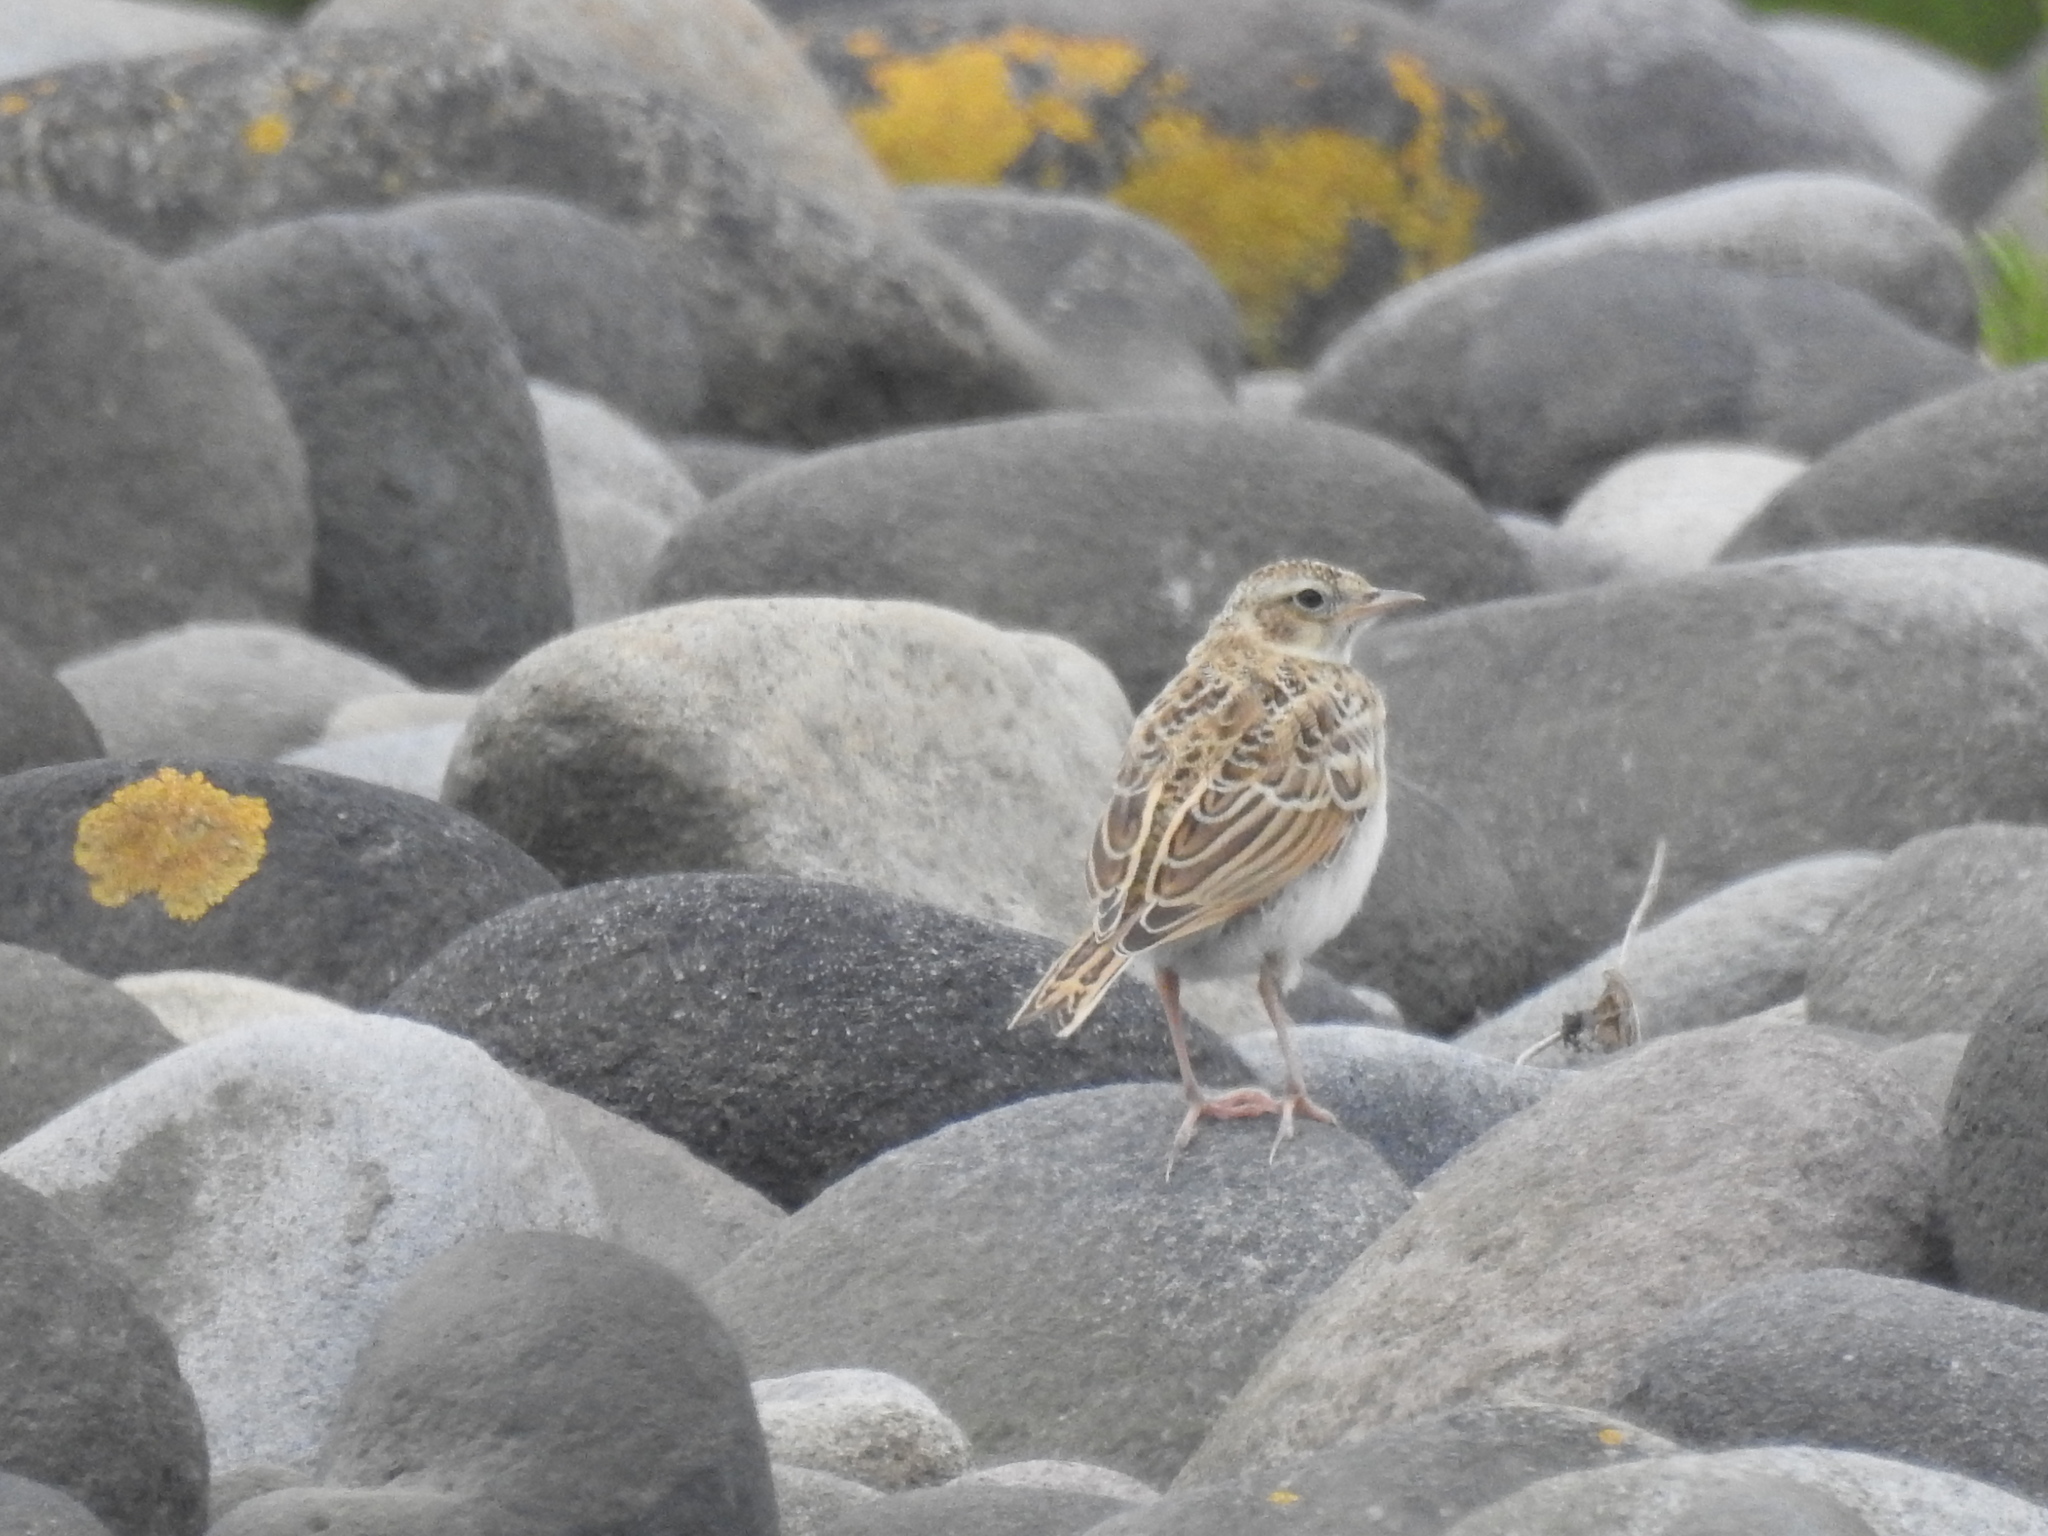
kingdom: Animalia
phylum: Chordata
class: Aves
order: Passeriformes
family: Alaudidae
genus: Alauda
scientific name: Alauda arvensis
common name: Eurasian skylark
